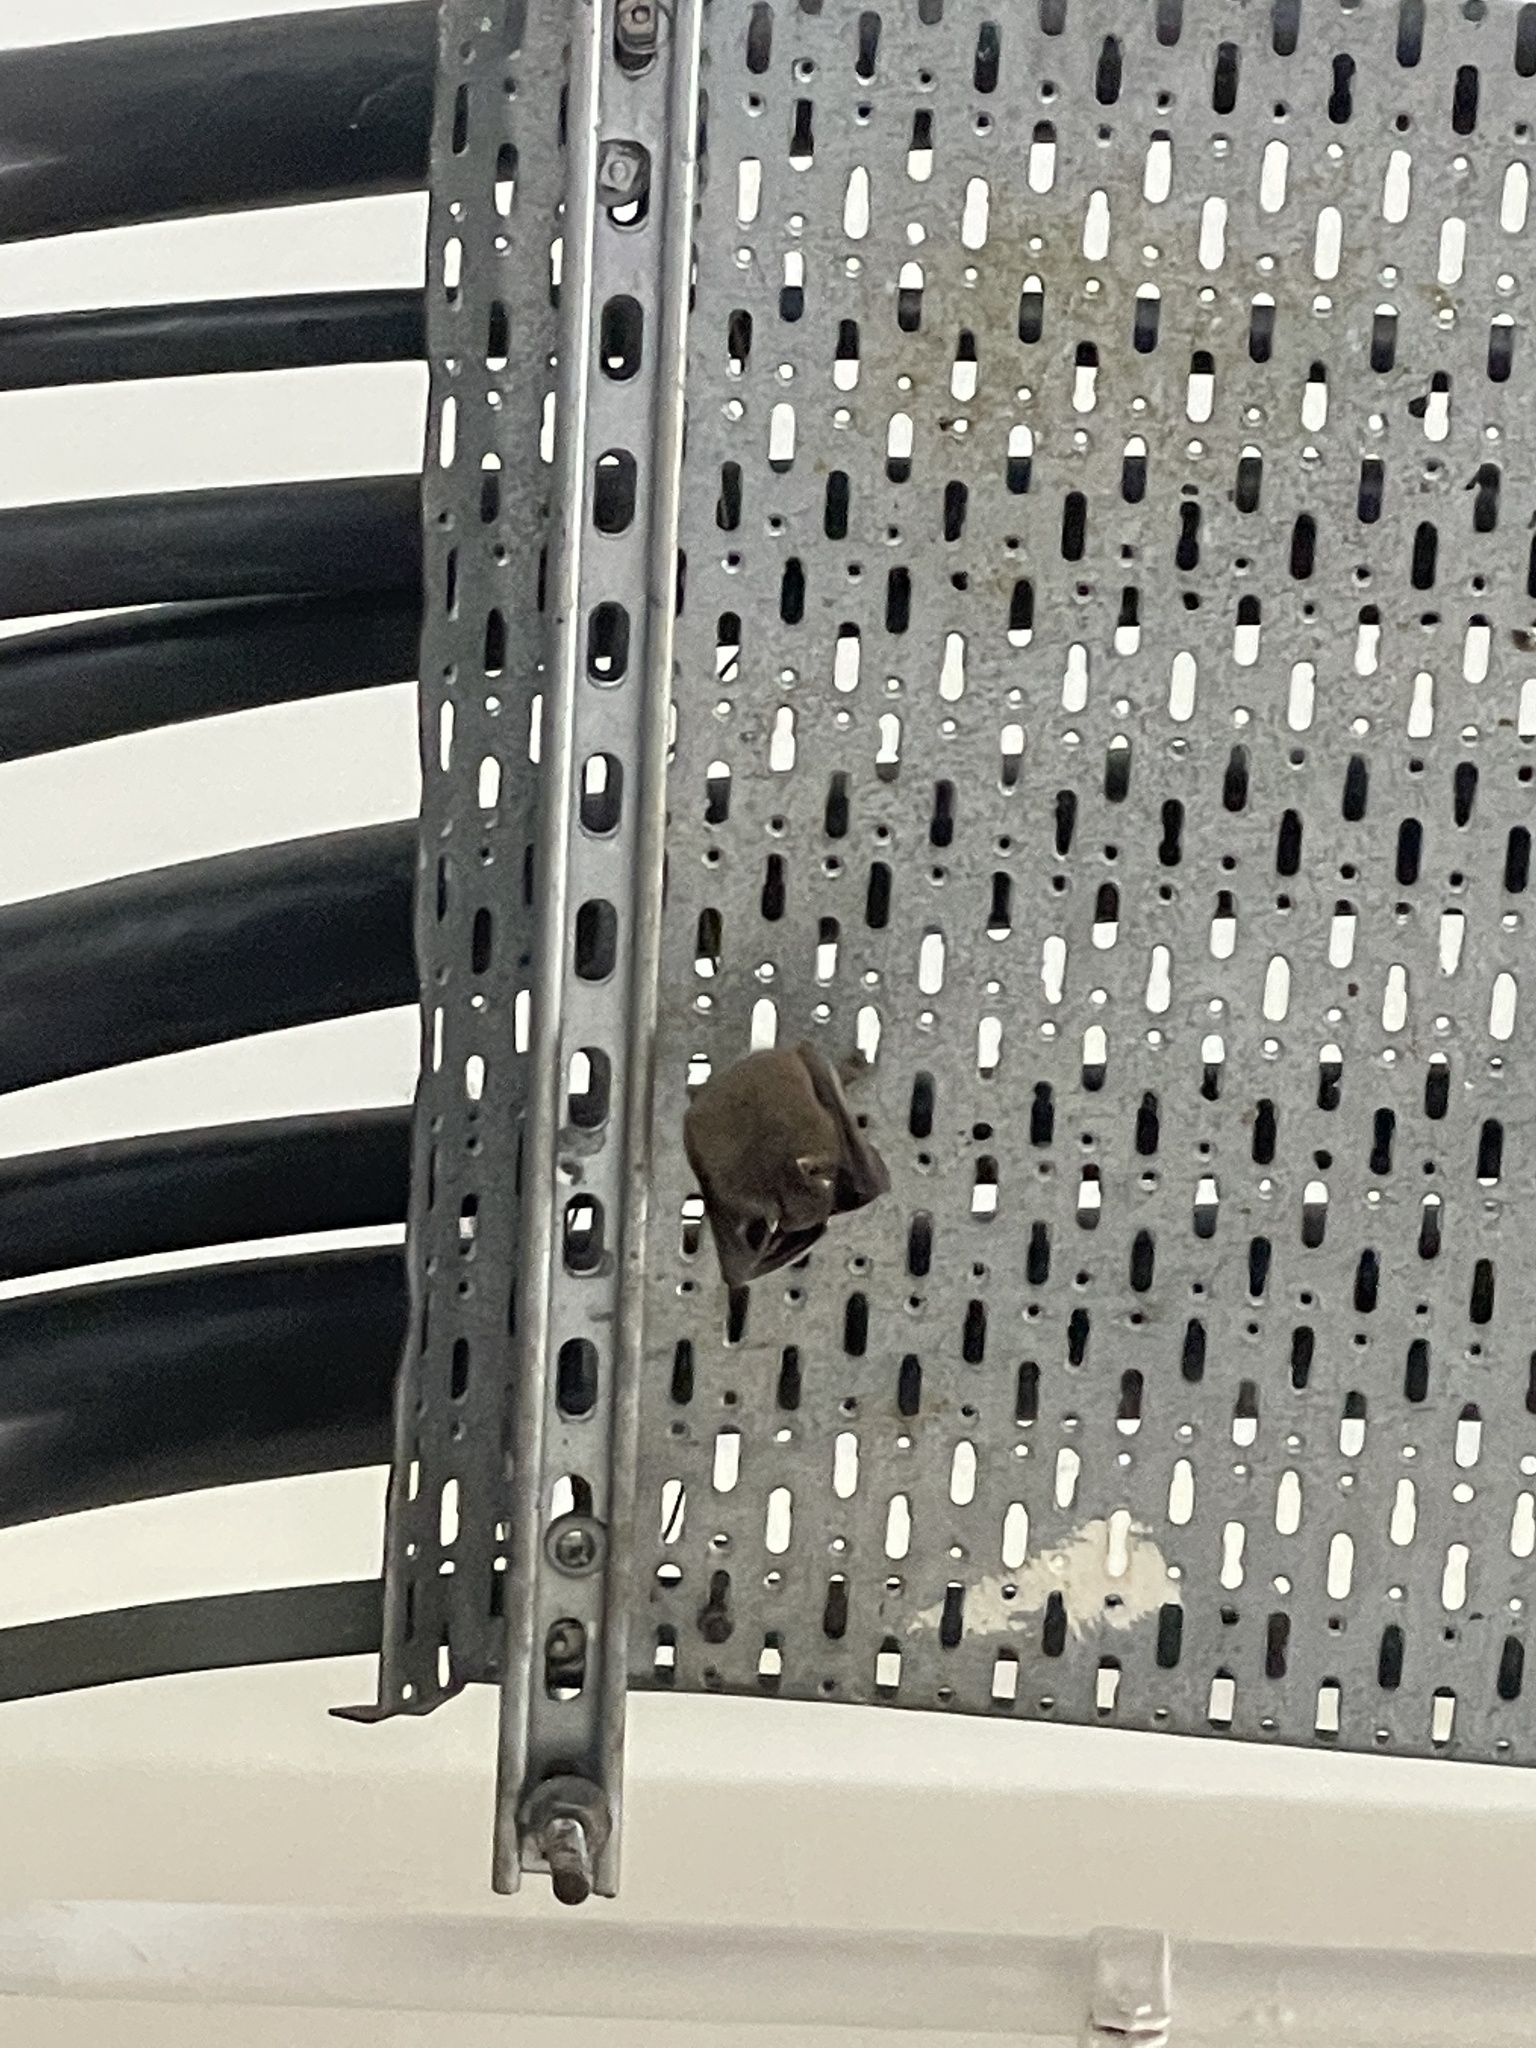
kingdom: Animalia
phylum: Chordata
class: Mammalia
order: Chiroptera
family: Pteropodidae
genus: Cynopterus
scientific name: Cynopterus sphinx
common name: Greater short-nosed fruit bat
